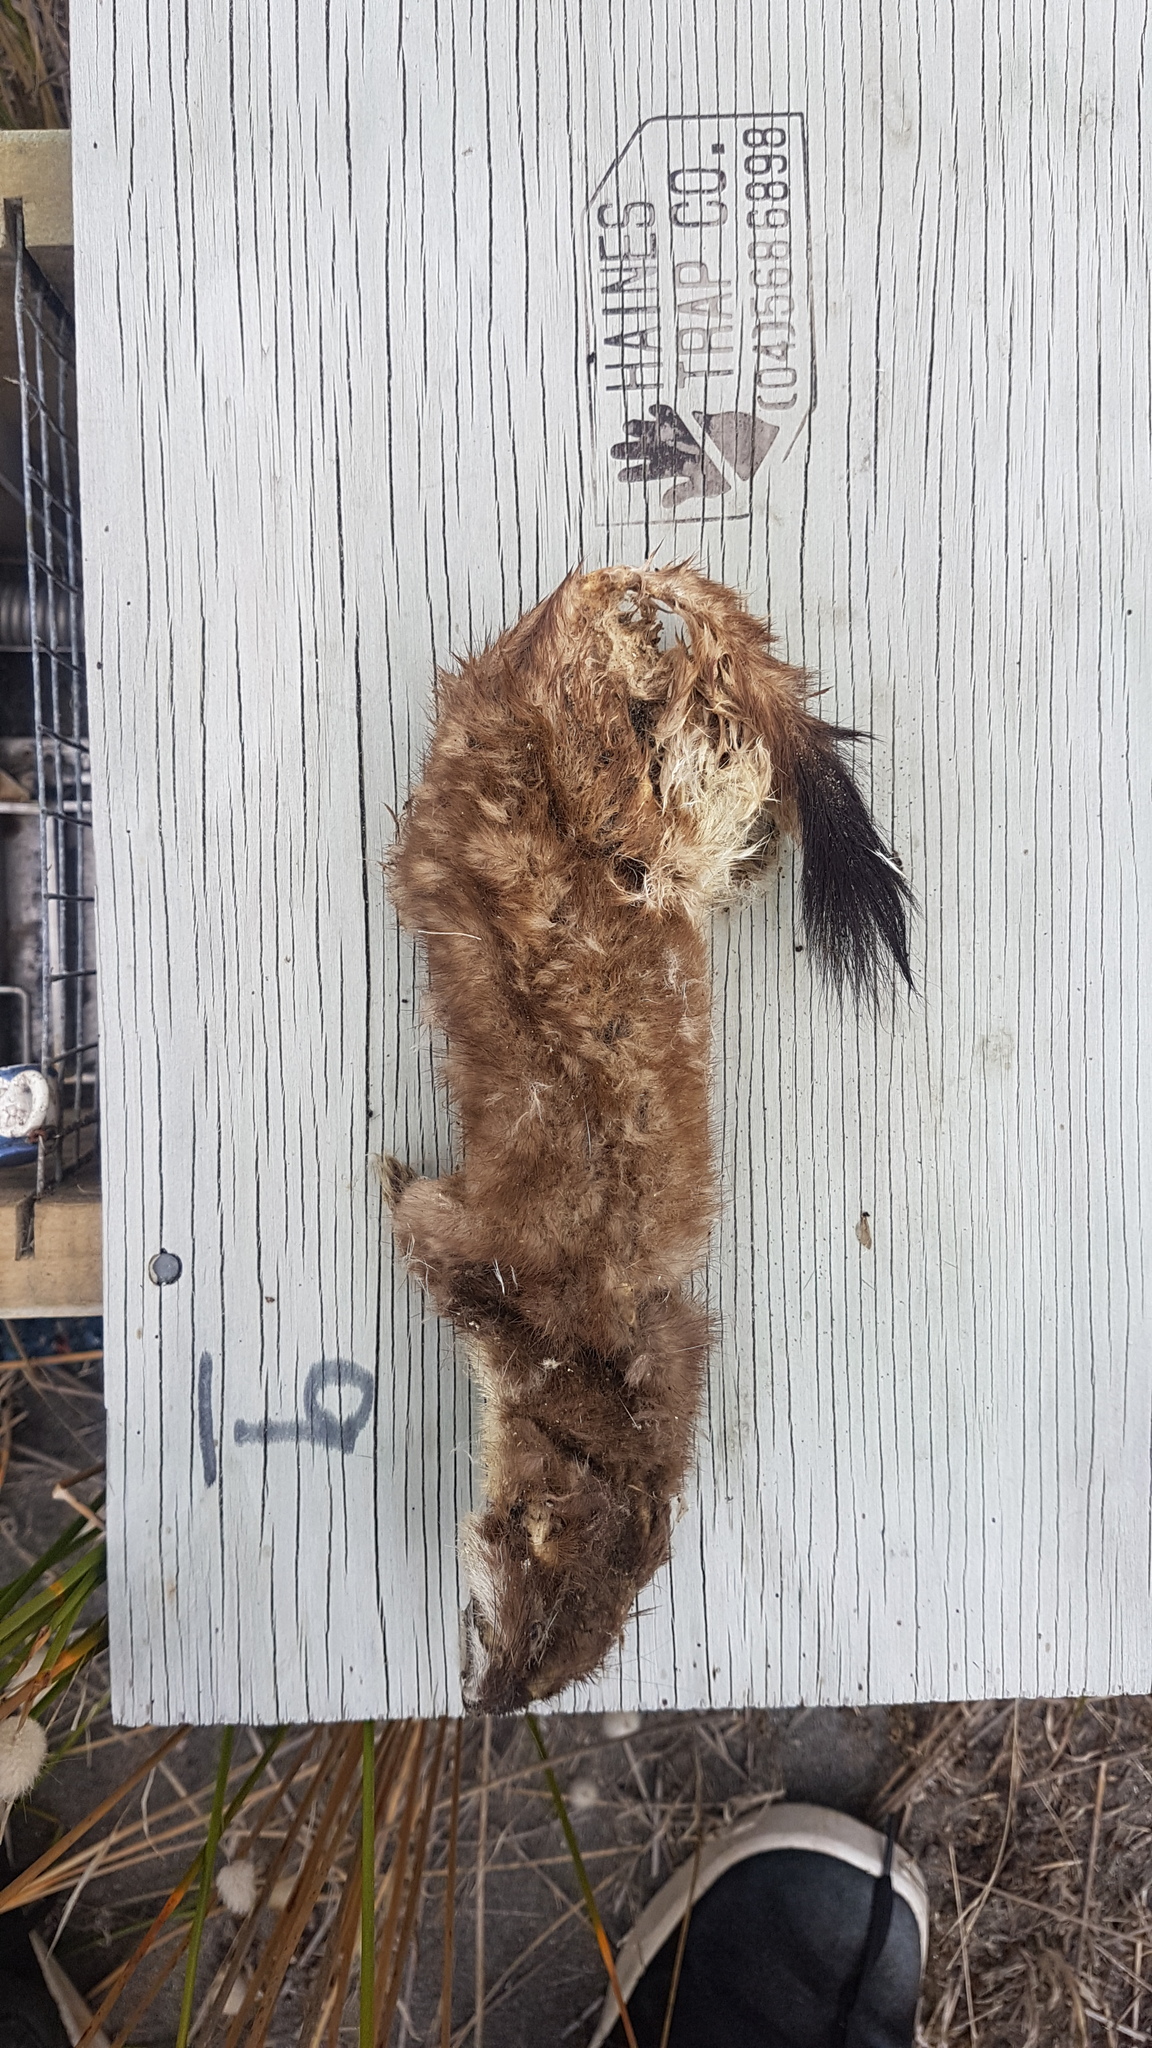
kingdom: Animalia
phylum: Chordata
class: Mammalia
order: Carnivora
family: Mustelidae
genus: Mustela
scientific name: Mustela erminea
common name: Stoat
